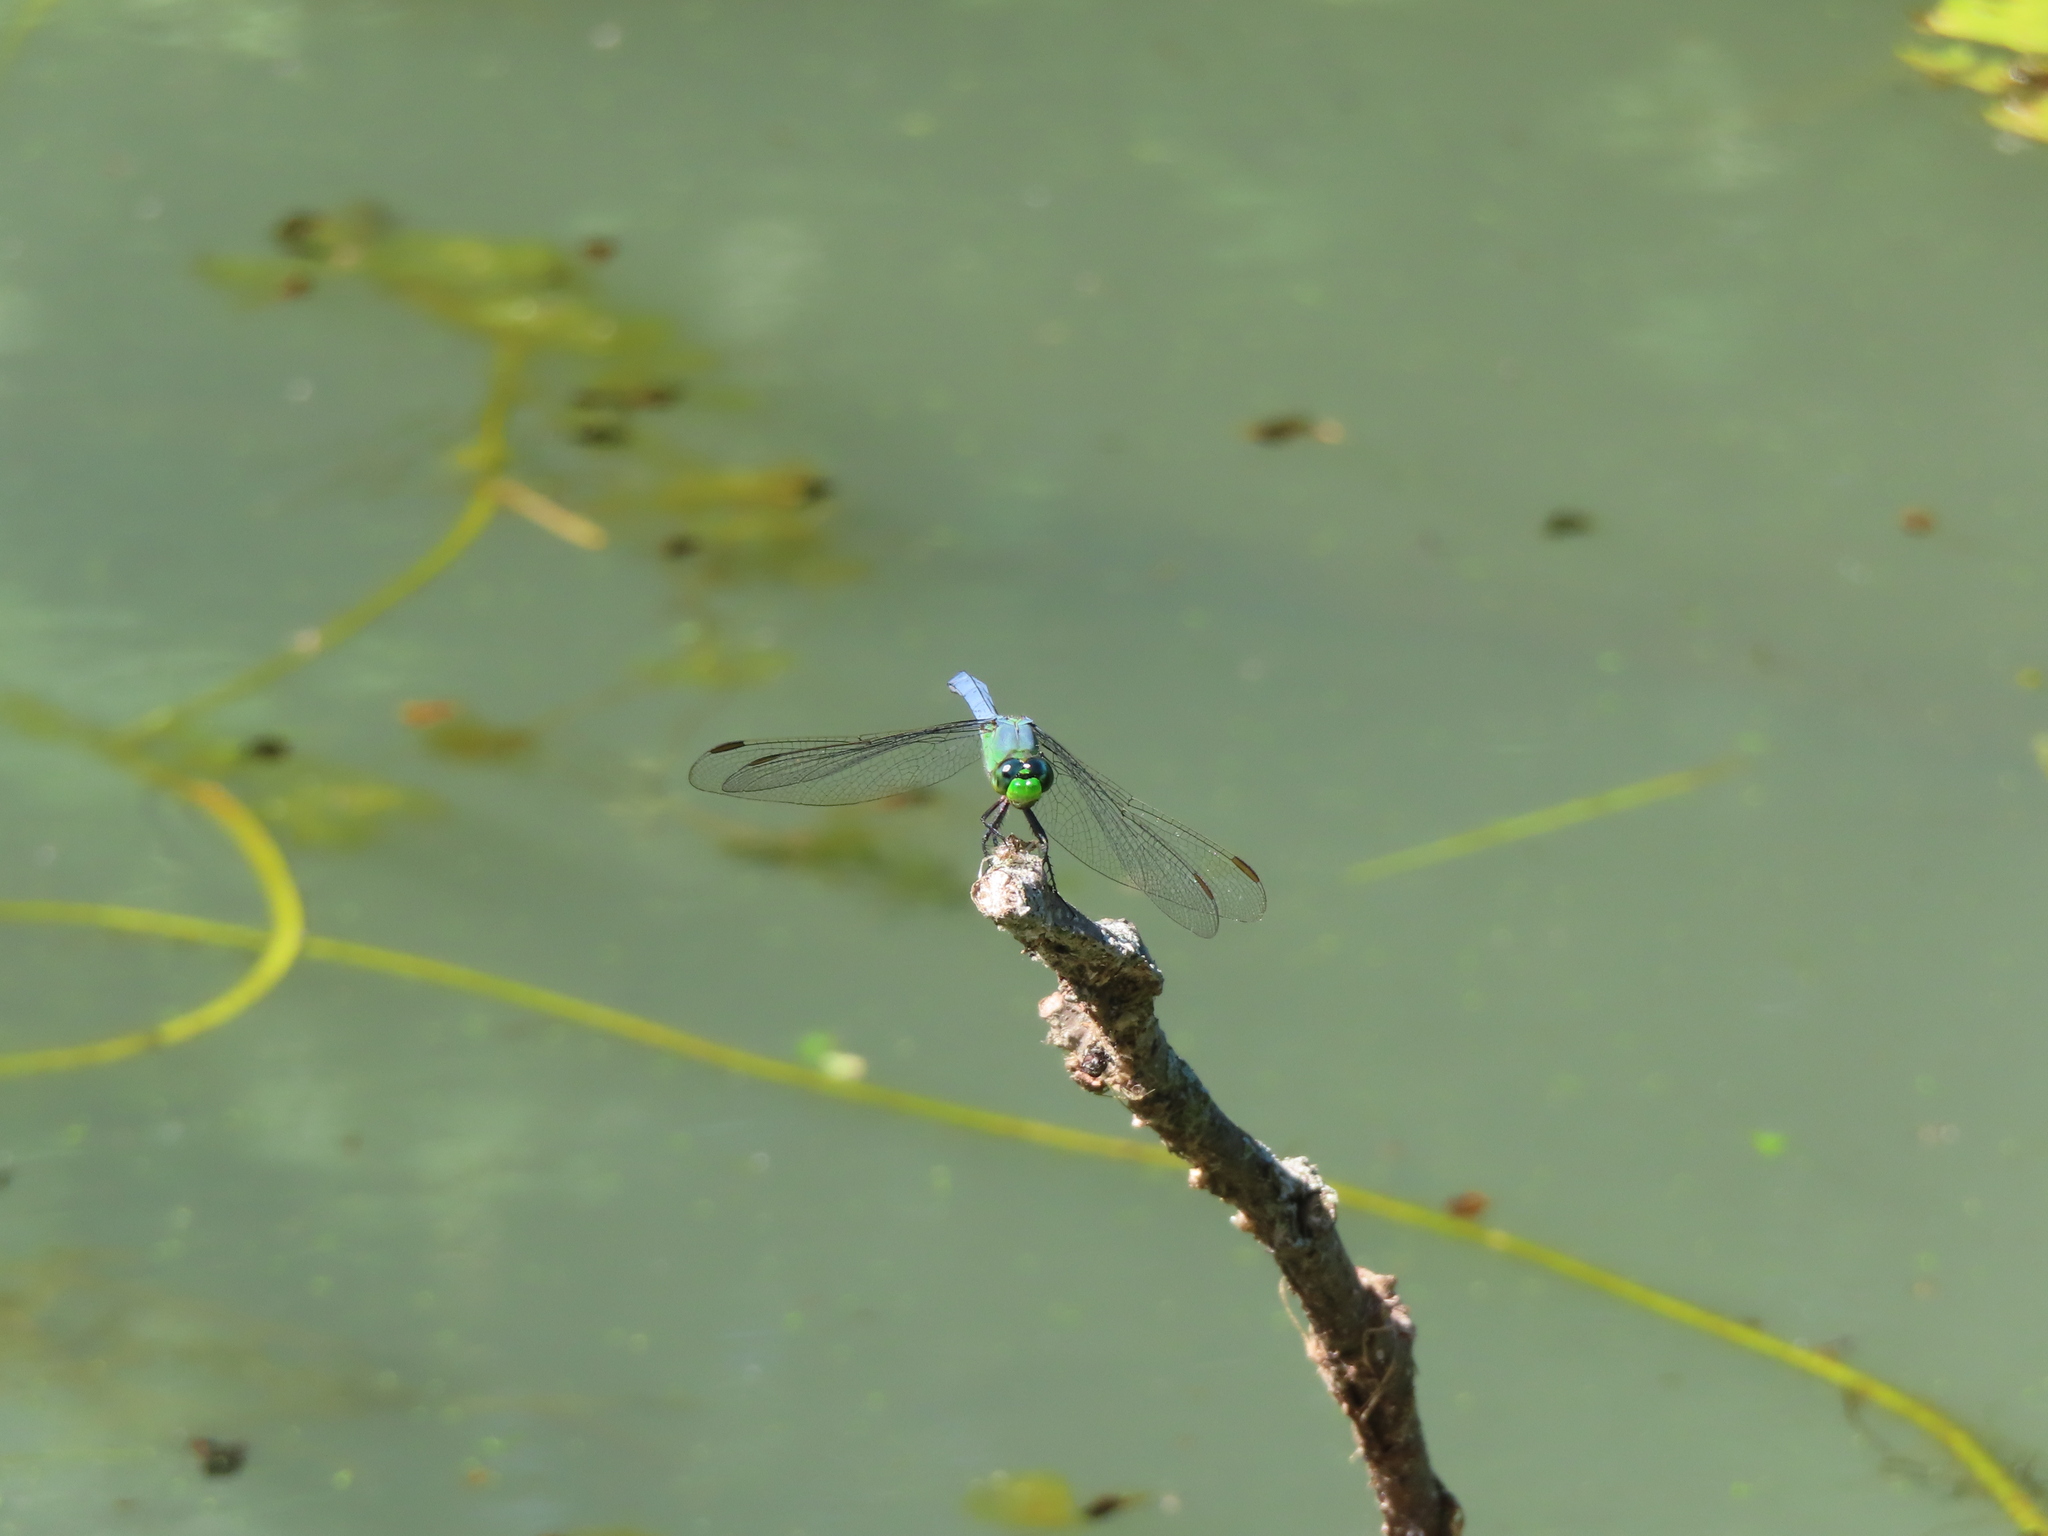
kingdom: Animalia
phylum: Arthropoda
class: Insecta
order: Odonata
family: Libellulidae
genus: Pachydiplax
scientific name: Pachydiplax longipennis
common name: Blue dasher
